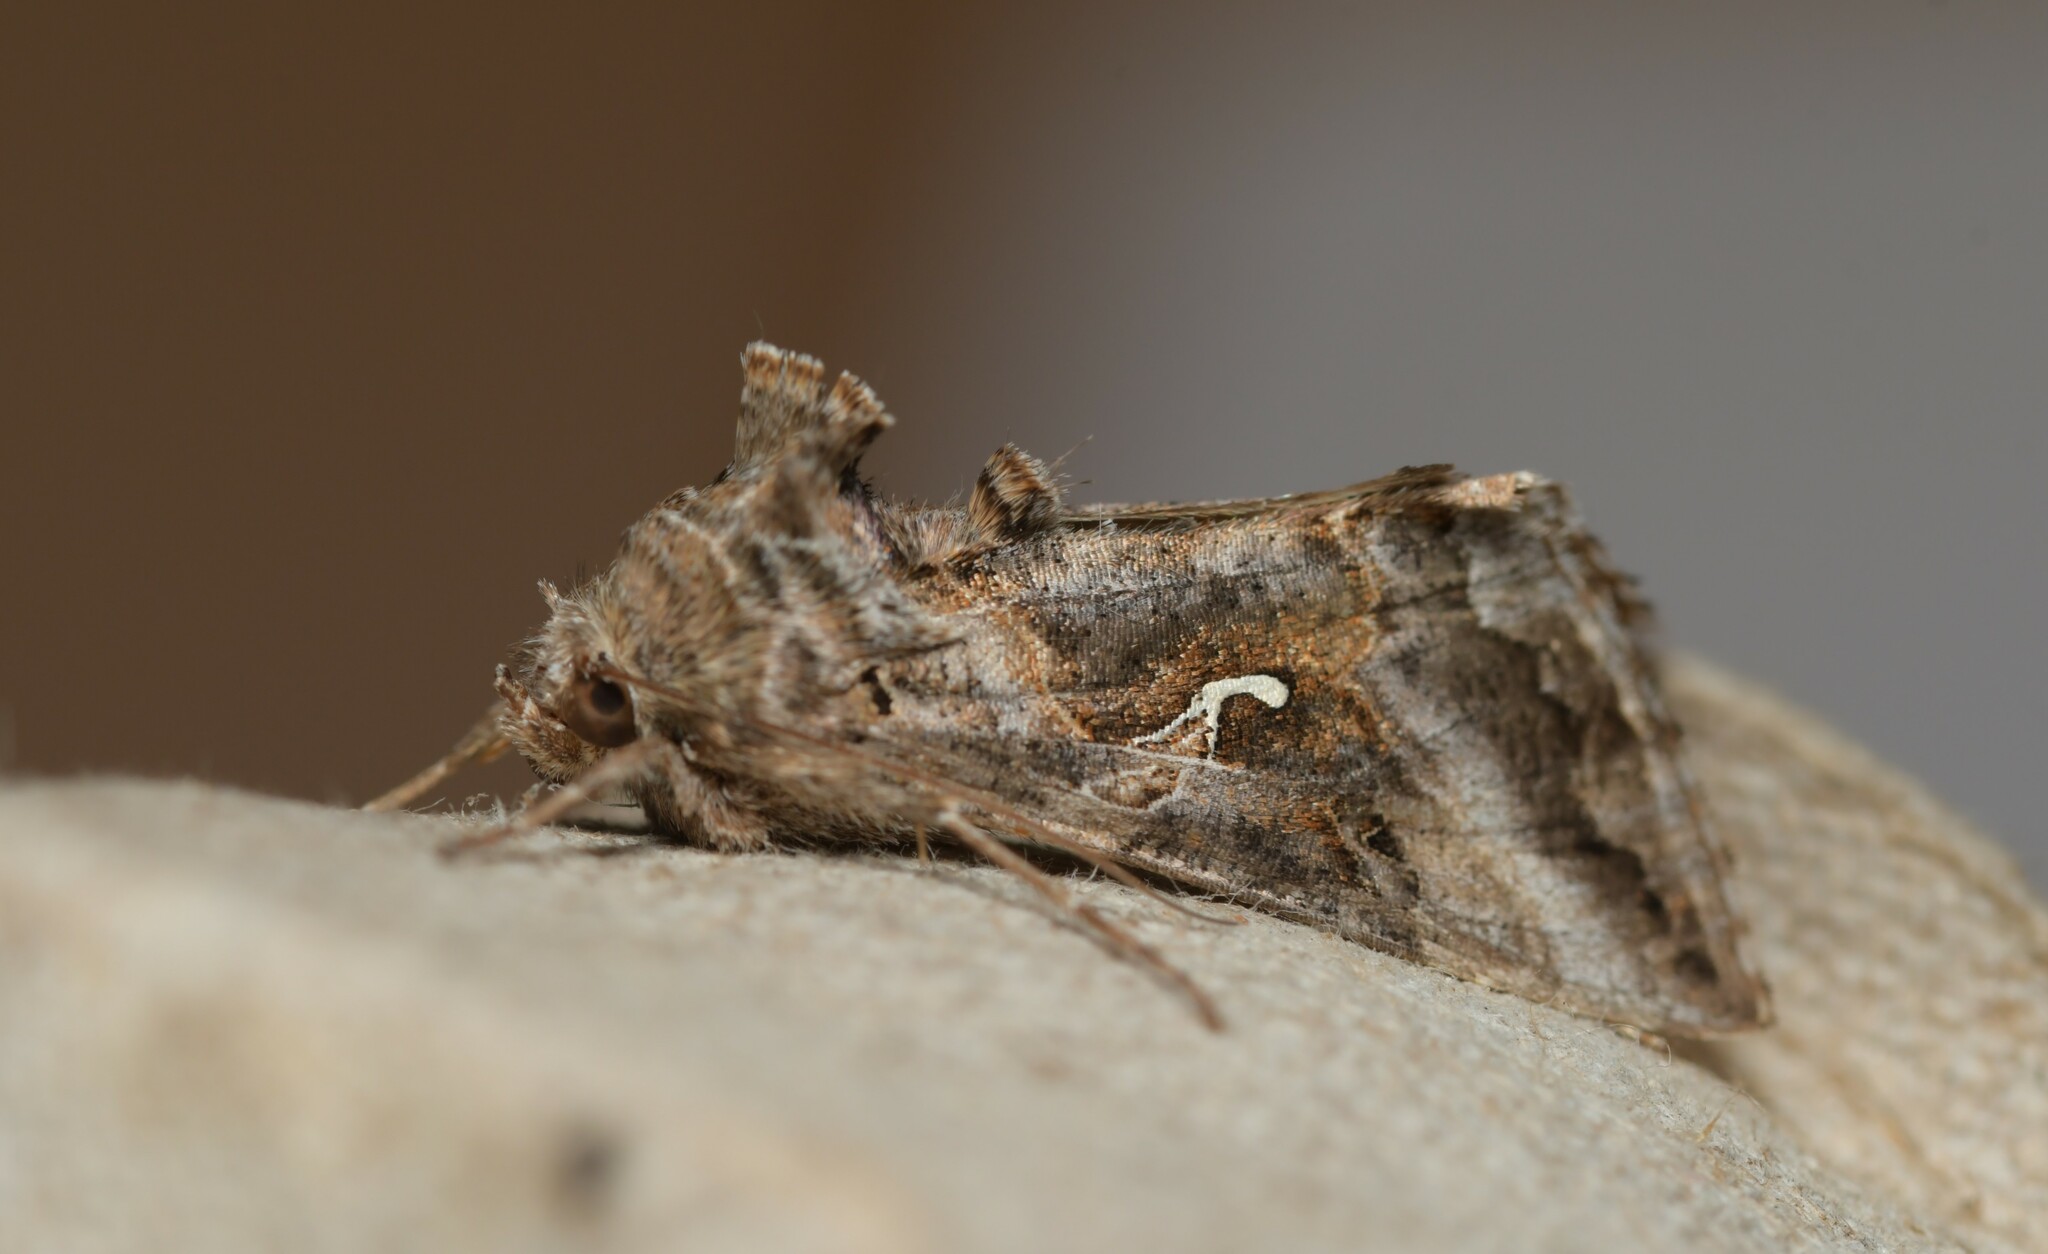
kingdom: Animalia
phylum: Arthropoda
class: Insecta
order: Lepidoptera
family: Noctuidae
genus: Autographa
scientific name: Autographa gamma
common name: Silver y
